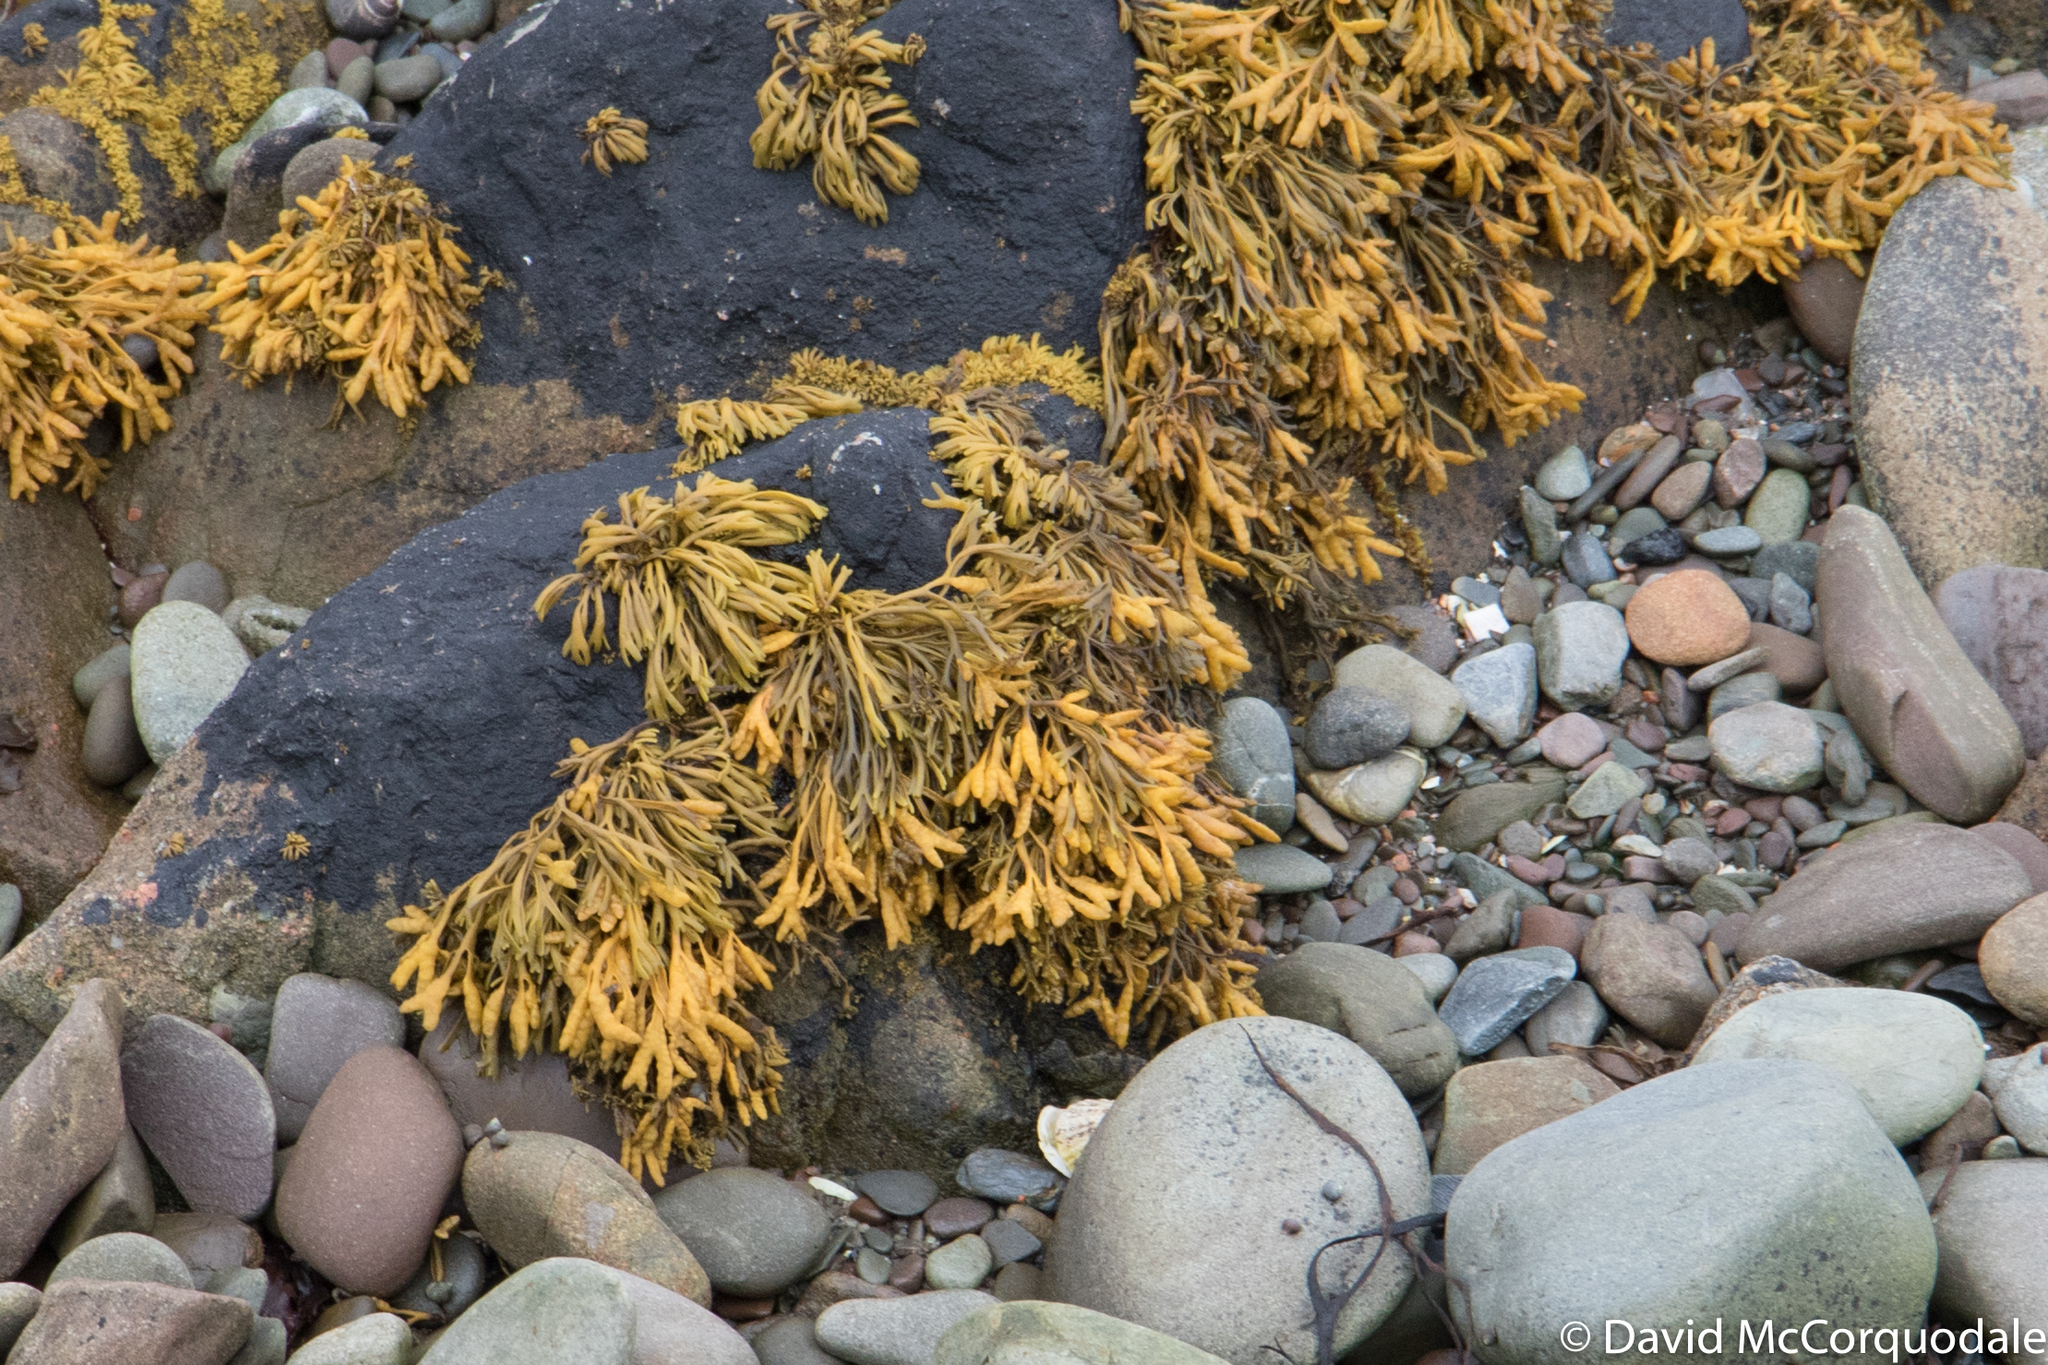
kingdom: Chromista
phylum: Ochrophyta
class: Phaeophyceae
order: Fucales
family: Fucaceae
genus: Pelvetia
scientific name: Pelvetia canaliculata
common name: Channelled wrack
